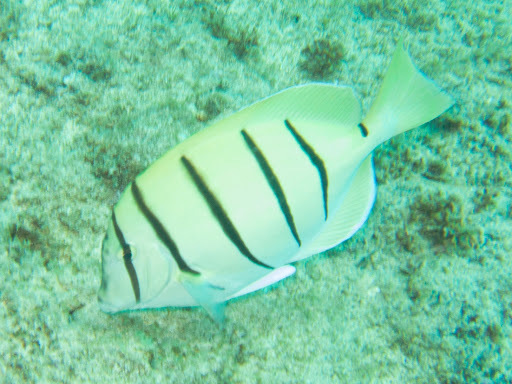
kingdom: Animalia
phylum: Chordata
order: Perciformes
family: Acanthuridae
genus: Acanthurus
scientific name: Acanthurus triostegus
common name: Convict surgeonfish
